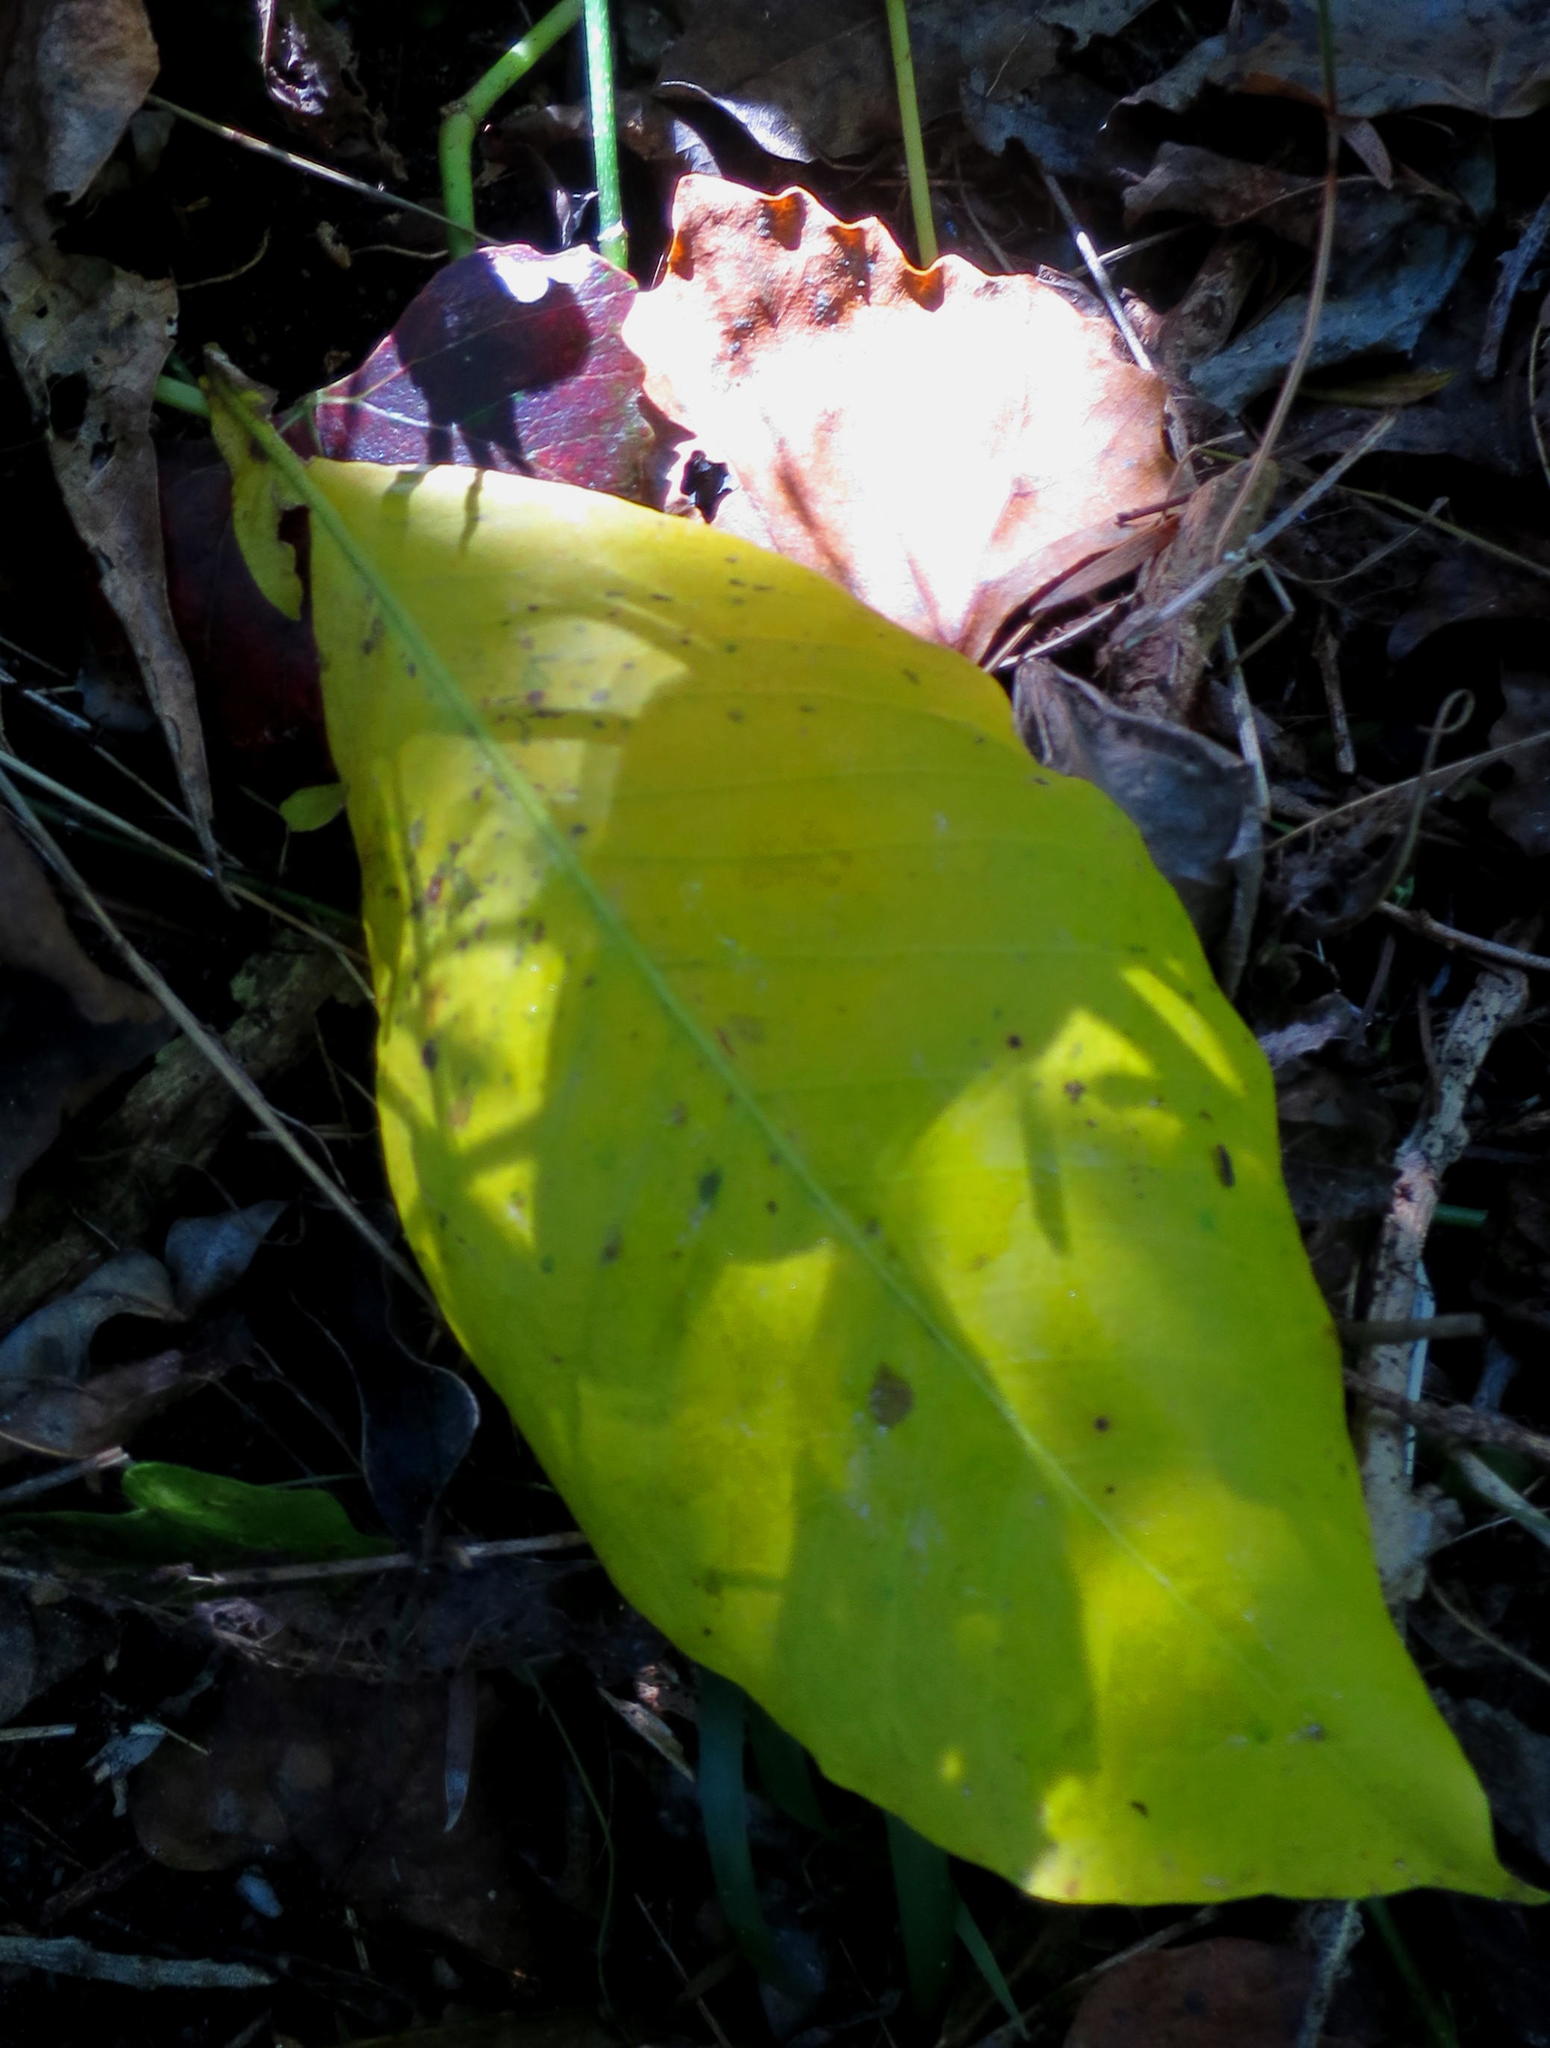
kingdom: Plantae
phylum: Tracheophyta
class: Magnoliopsida
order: Sapindales
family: Rutaceae
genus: Calodendrum
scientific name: Calodendrum capense
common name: Cape chestnut
